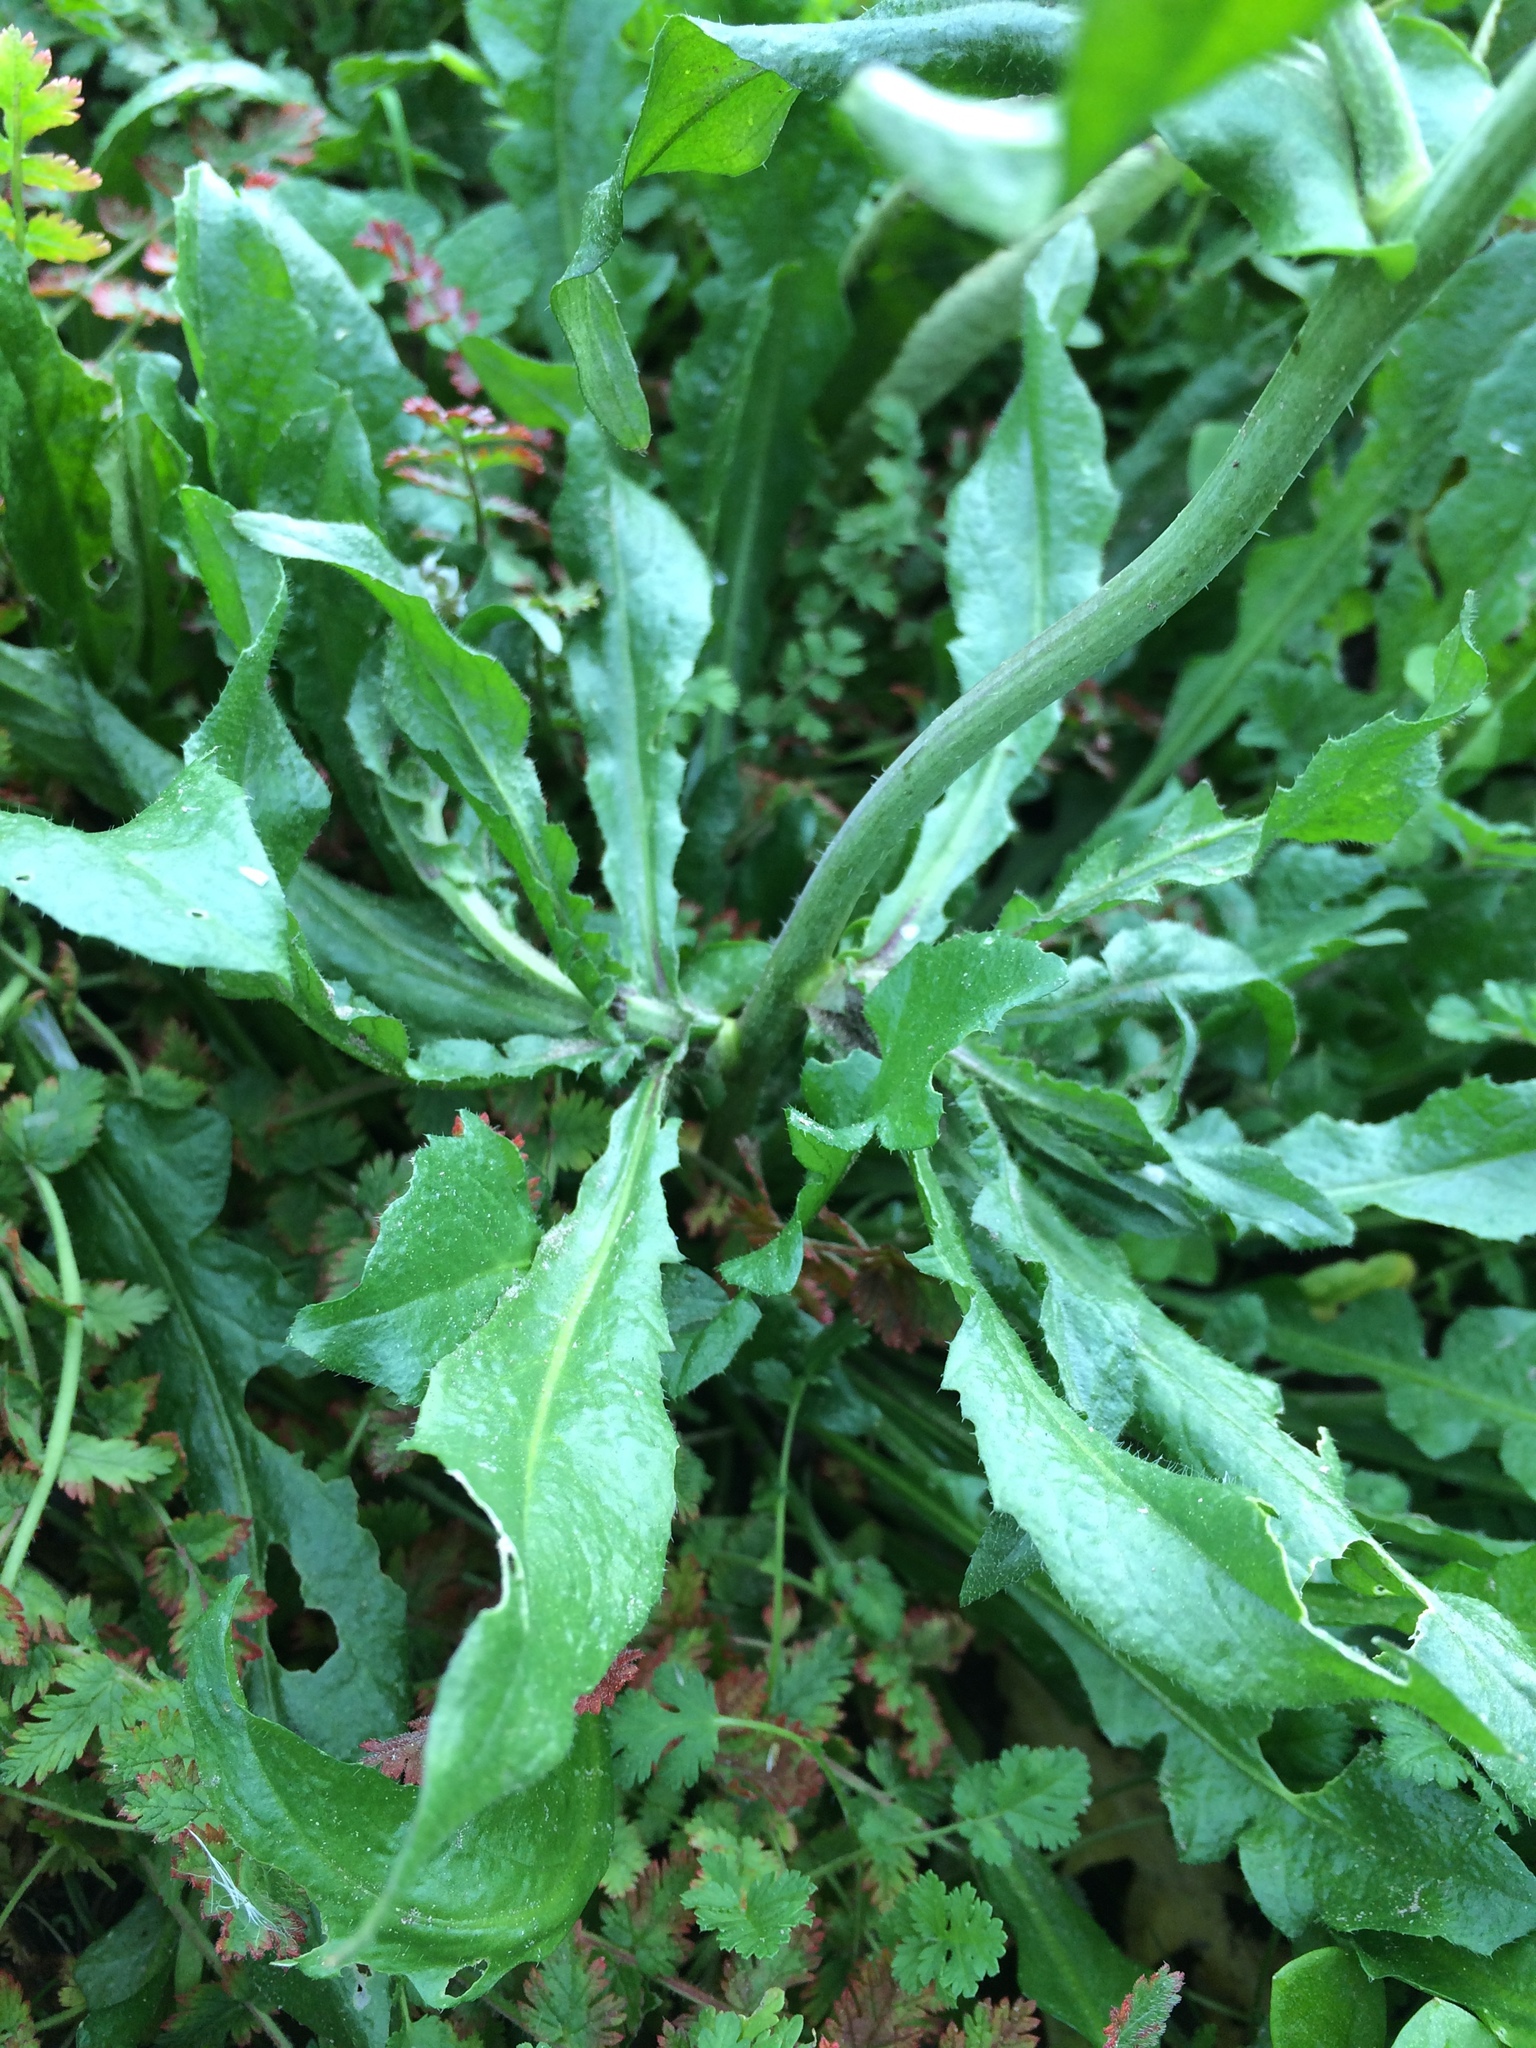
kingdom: Plantae
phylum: Tracheophyta
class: Magnoliopsida
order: Brassicales
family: Brassicaceae
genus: Capsella
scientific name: Capsella bursa-pastoris
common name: Shepherd's purse
